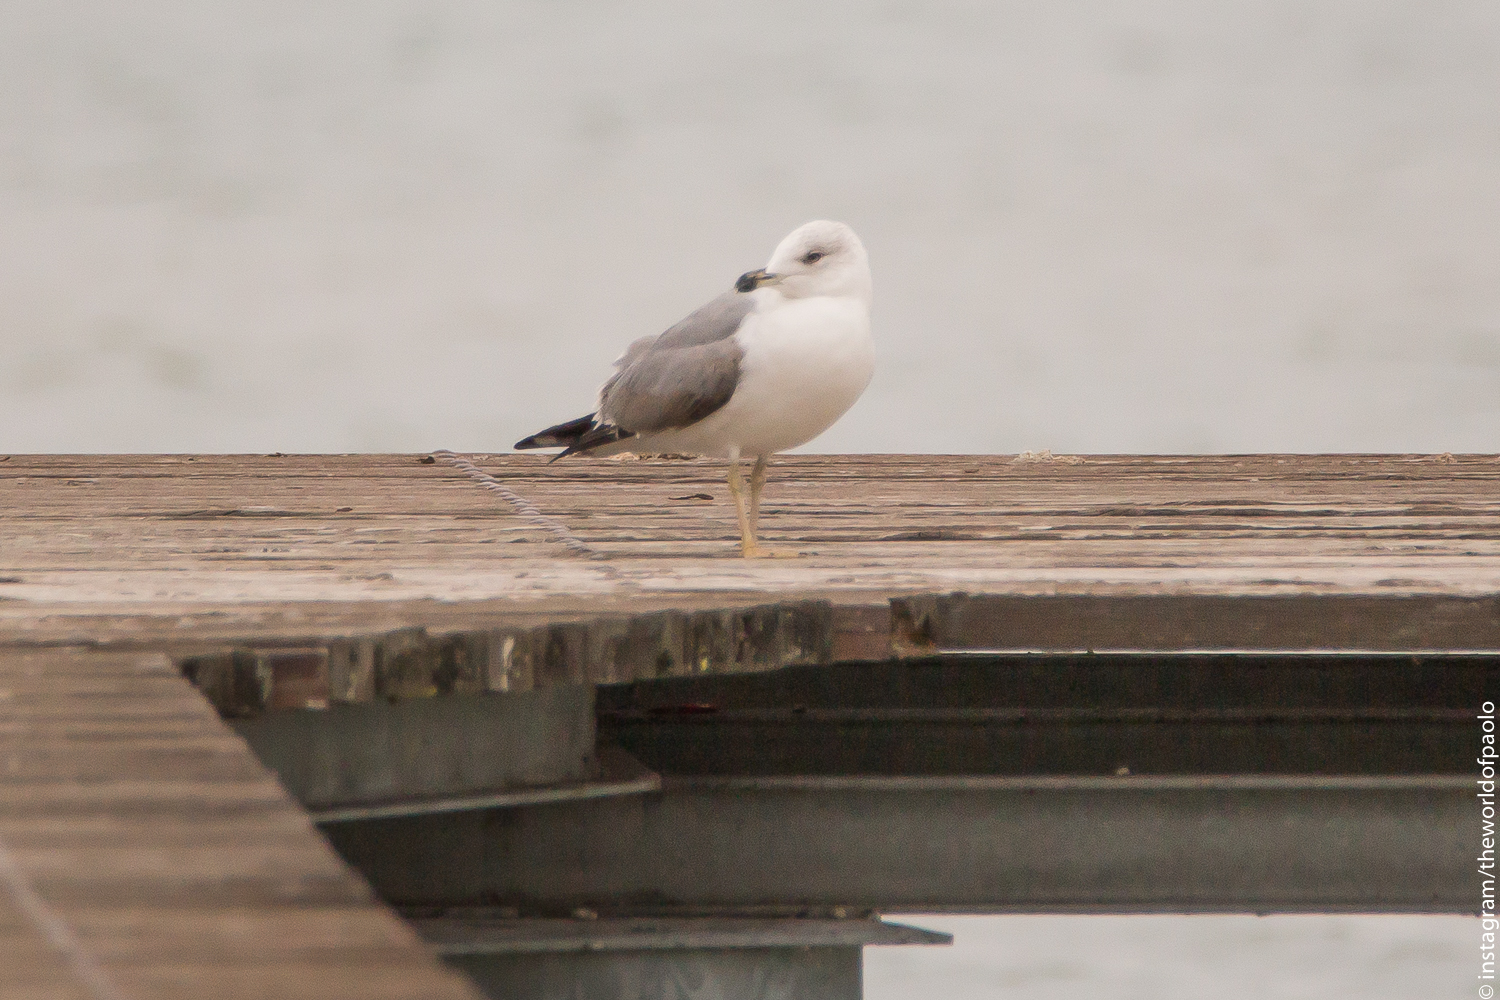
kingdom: Animalia
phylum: Chordata
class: Aves
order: Charadriiformes
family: Laridae
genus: Larus
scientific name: Larus canus
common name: Mew gull
